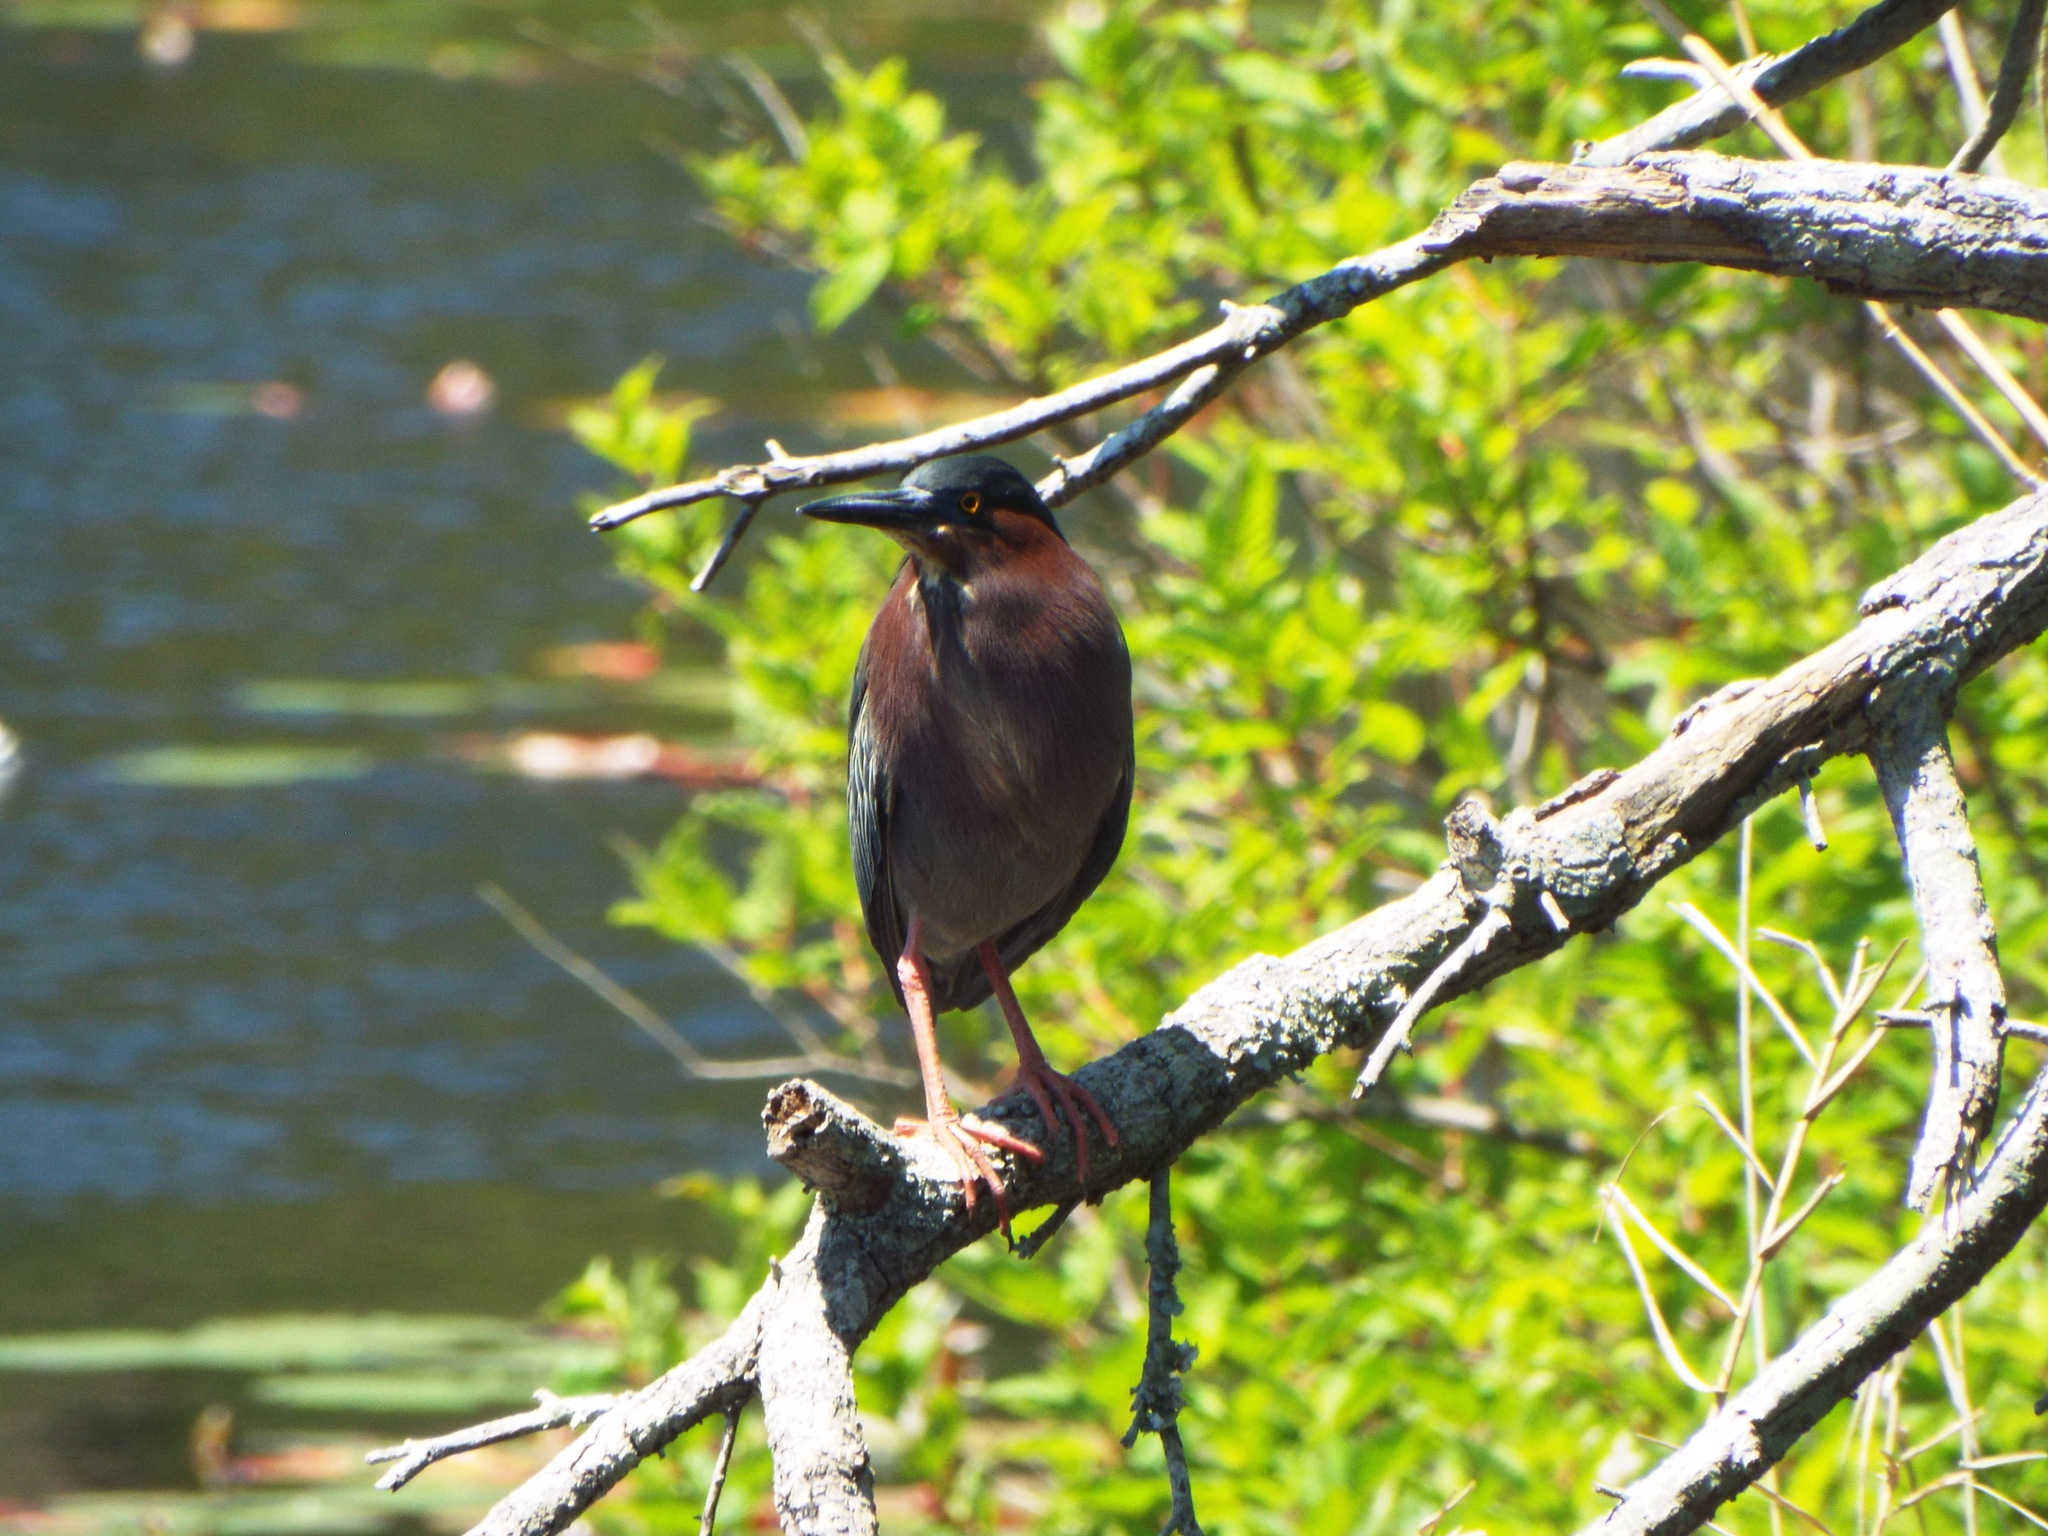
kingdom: Animalia
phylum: Chordata
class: Aves
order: Pelecaniformes
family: Ardeidae
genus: Butorides
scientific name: Butorides virescens
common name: Green heron
